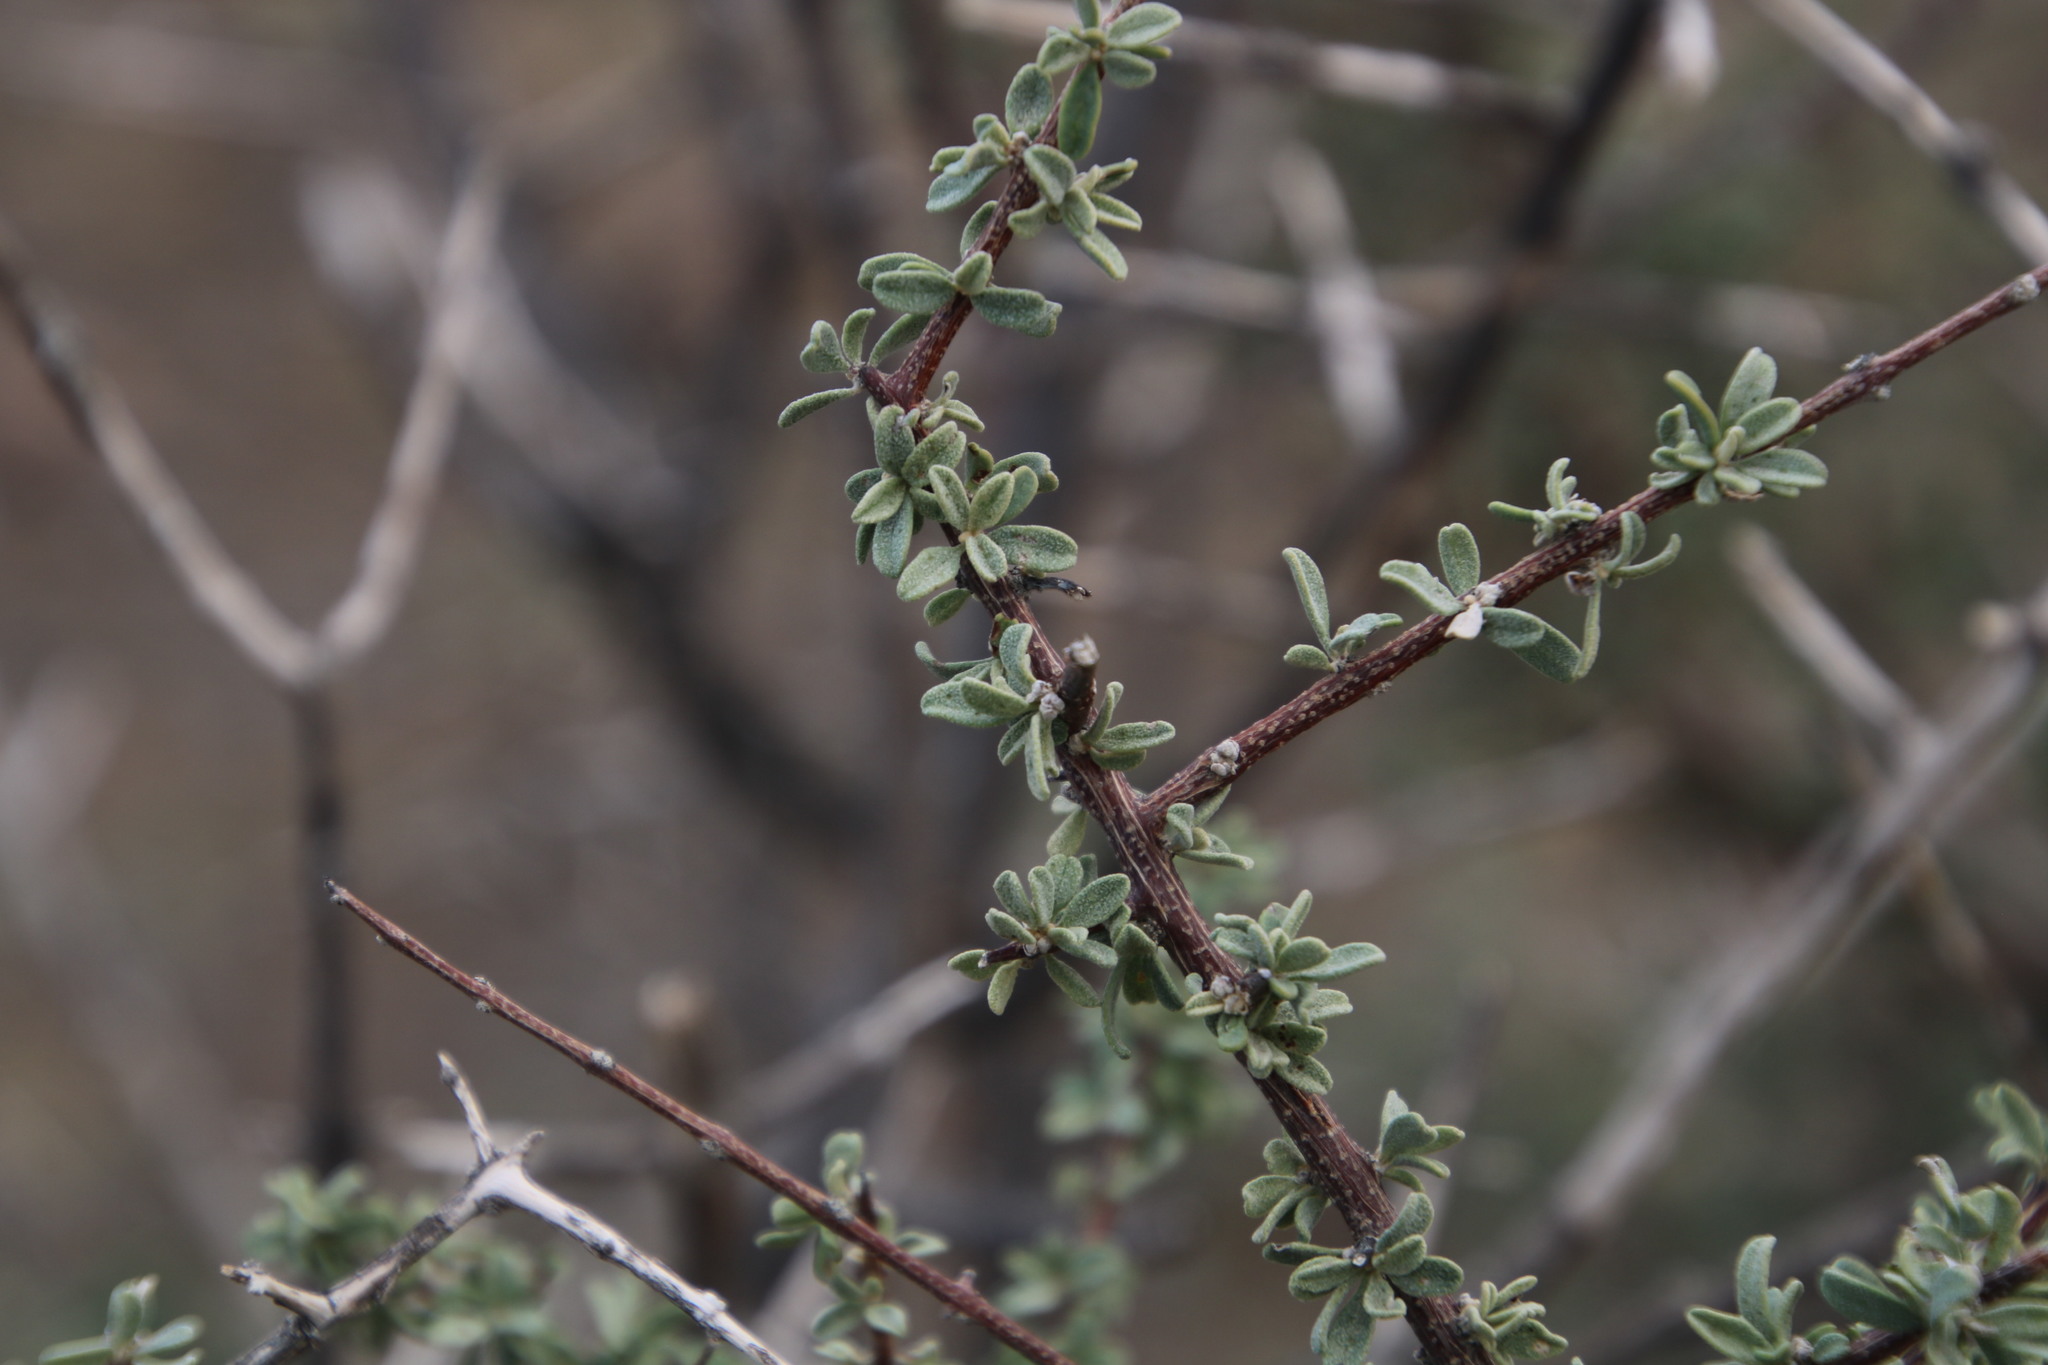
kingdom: Plantae
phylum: Tracheophyta
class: Magnoliopsida
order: Lamiales
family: Bignoniaceae
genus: Rhigozum
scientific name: Rhigozum obovatum
